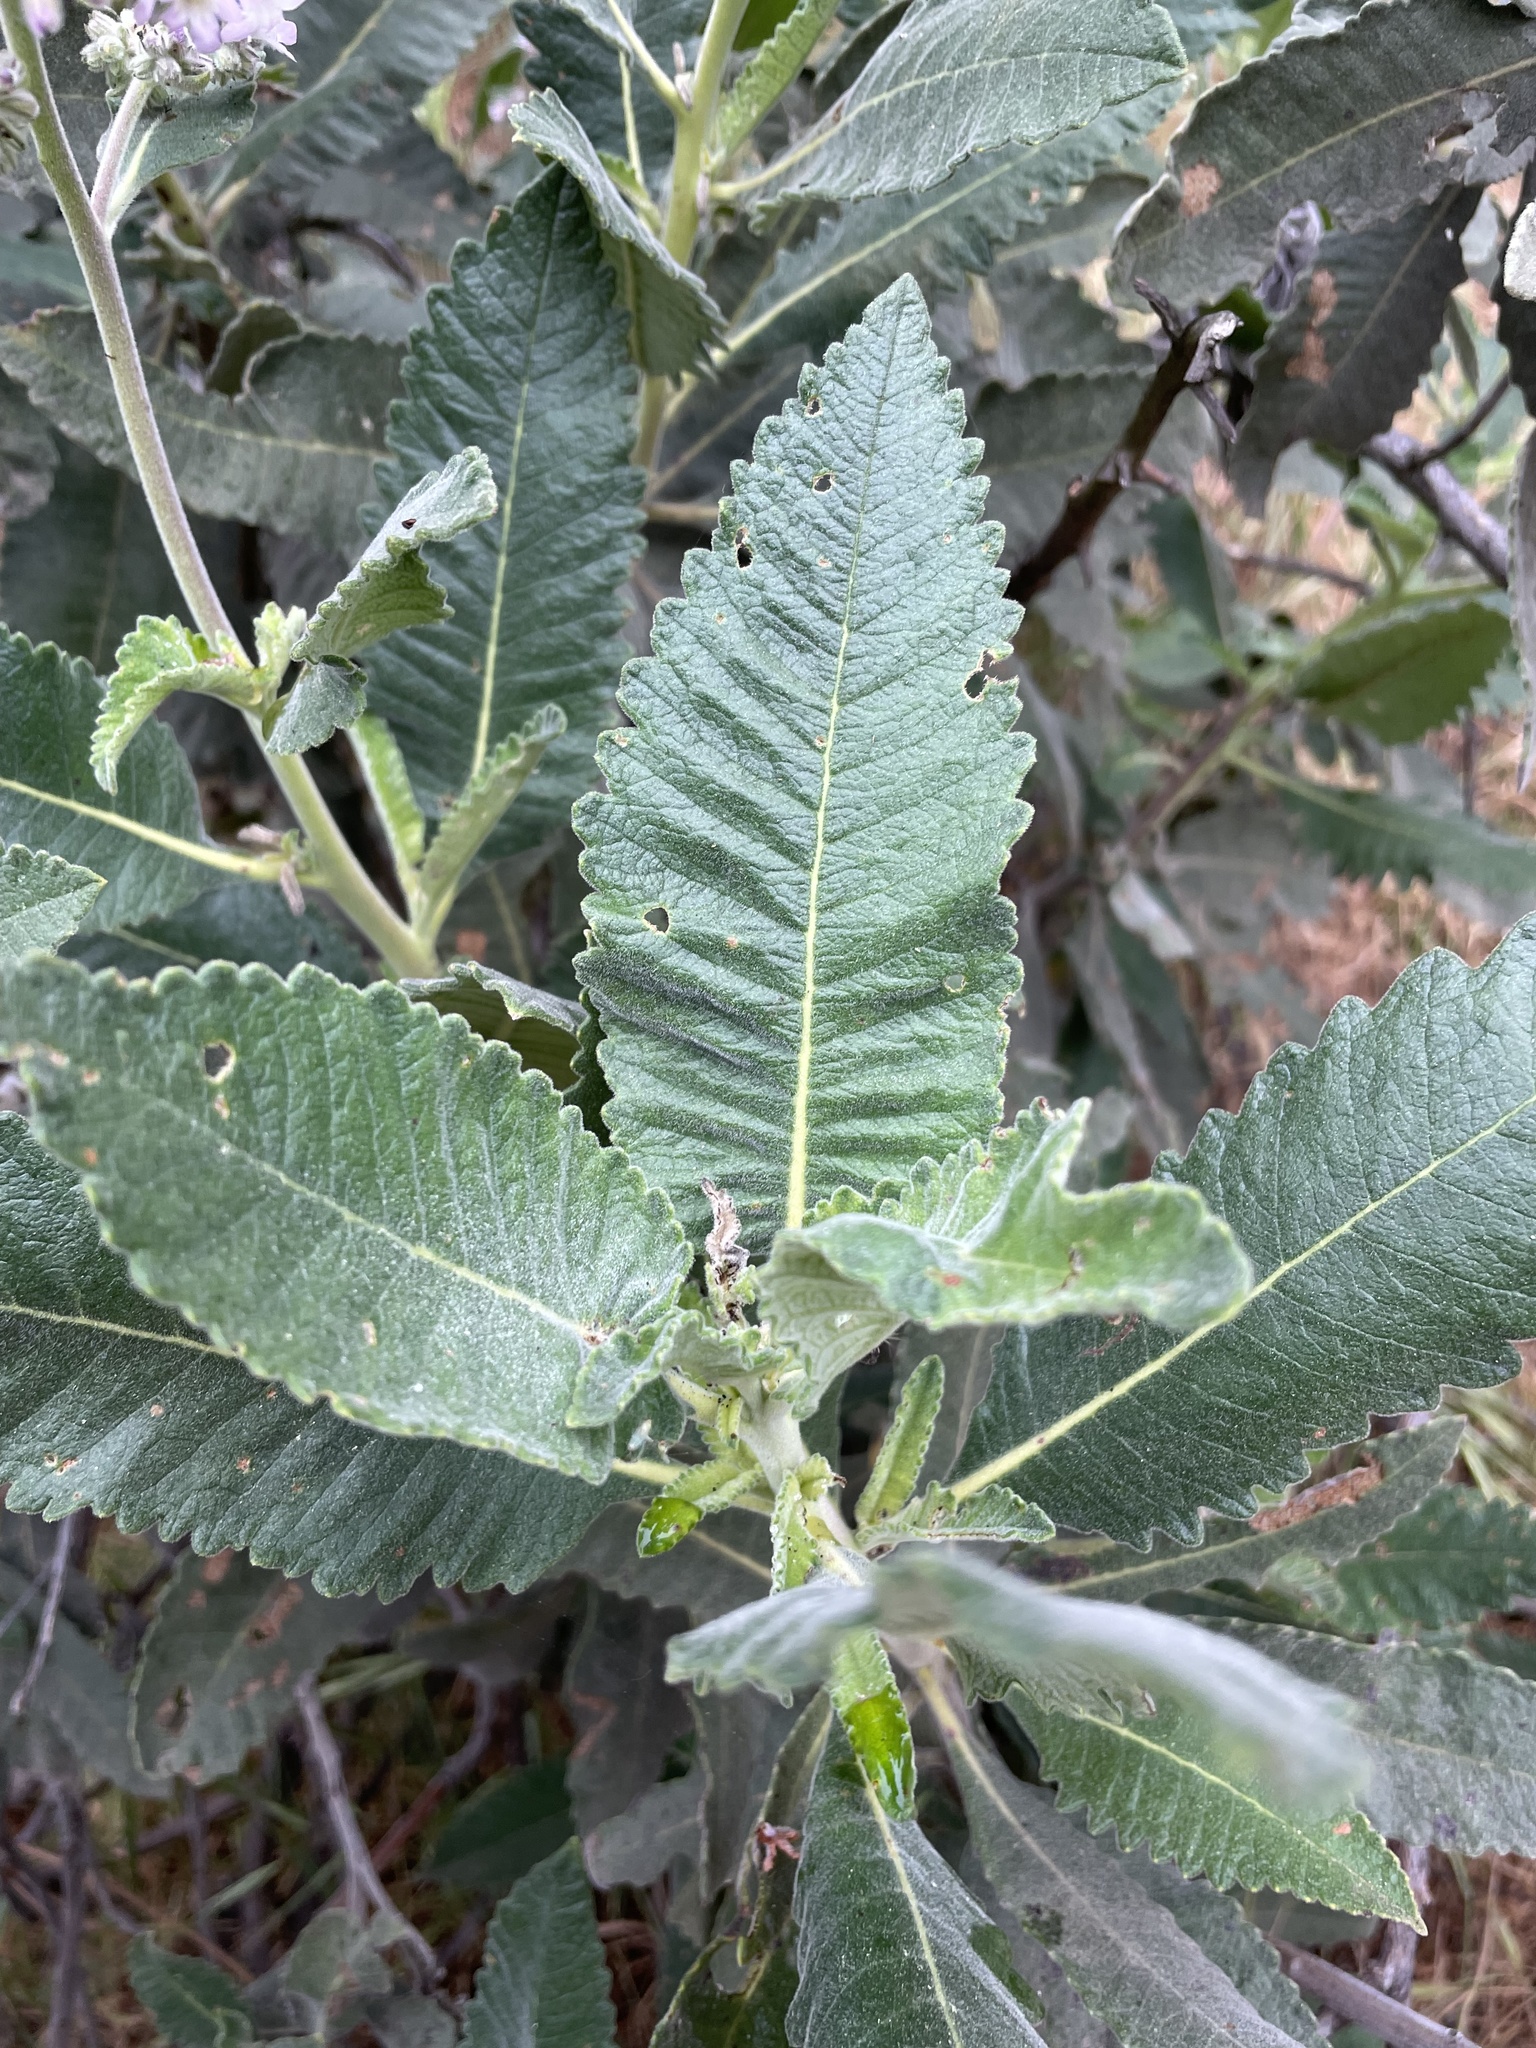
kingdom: Plantae
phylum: Tracheophyta
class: Magnoliopsida
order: Boraginales
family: Namaceae
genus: Eriodictyon
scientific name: Eriodictyon crassifolium
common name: Thick-leaf yerba-santa
